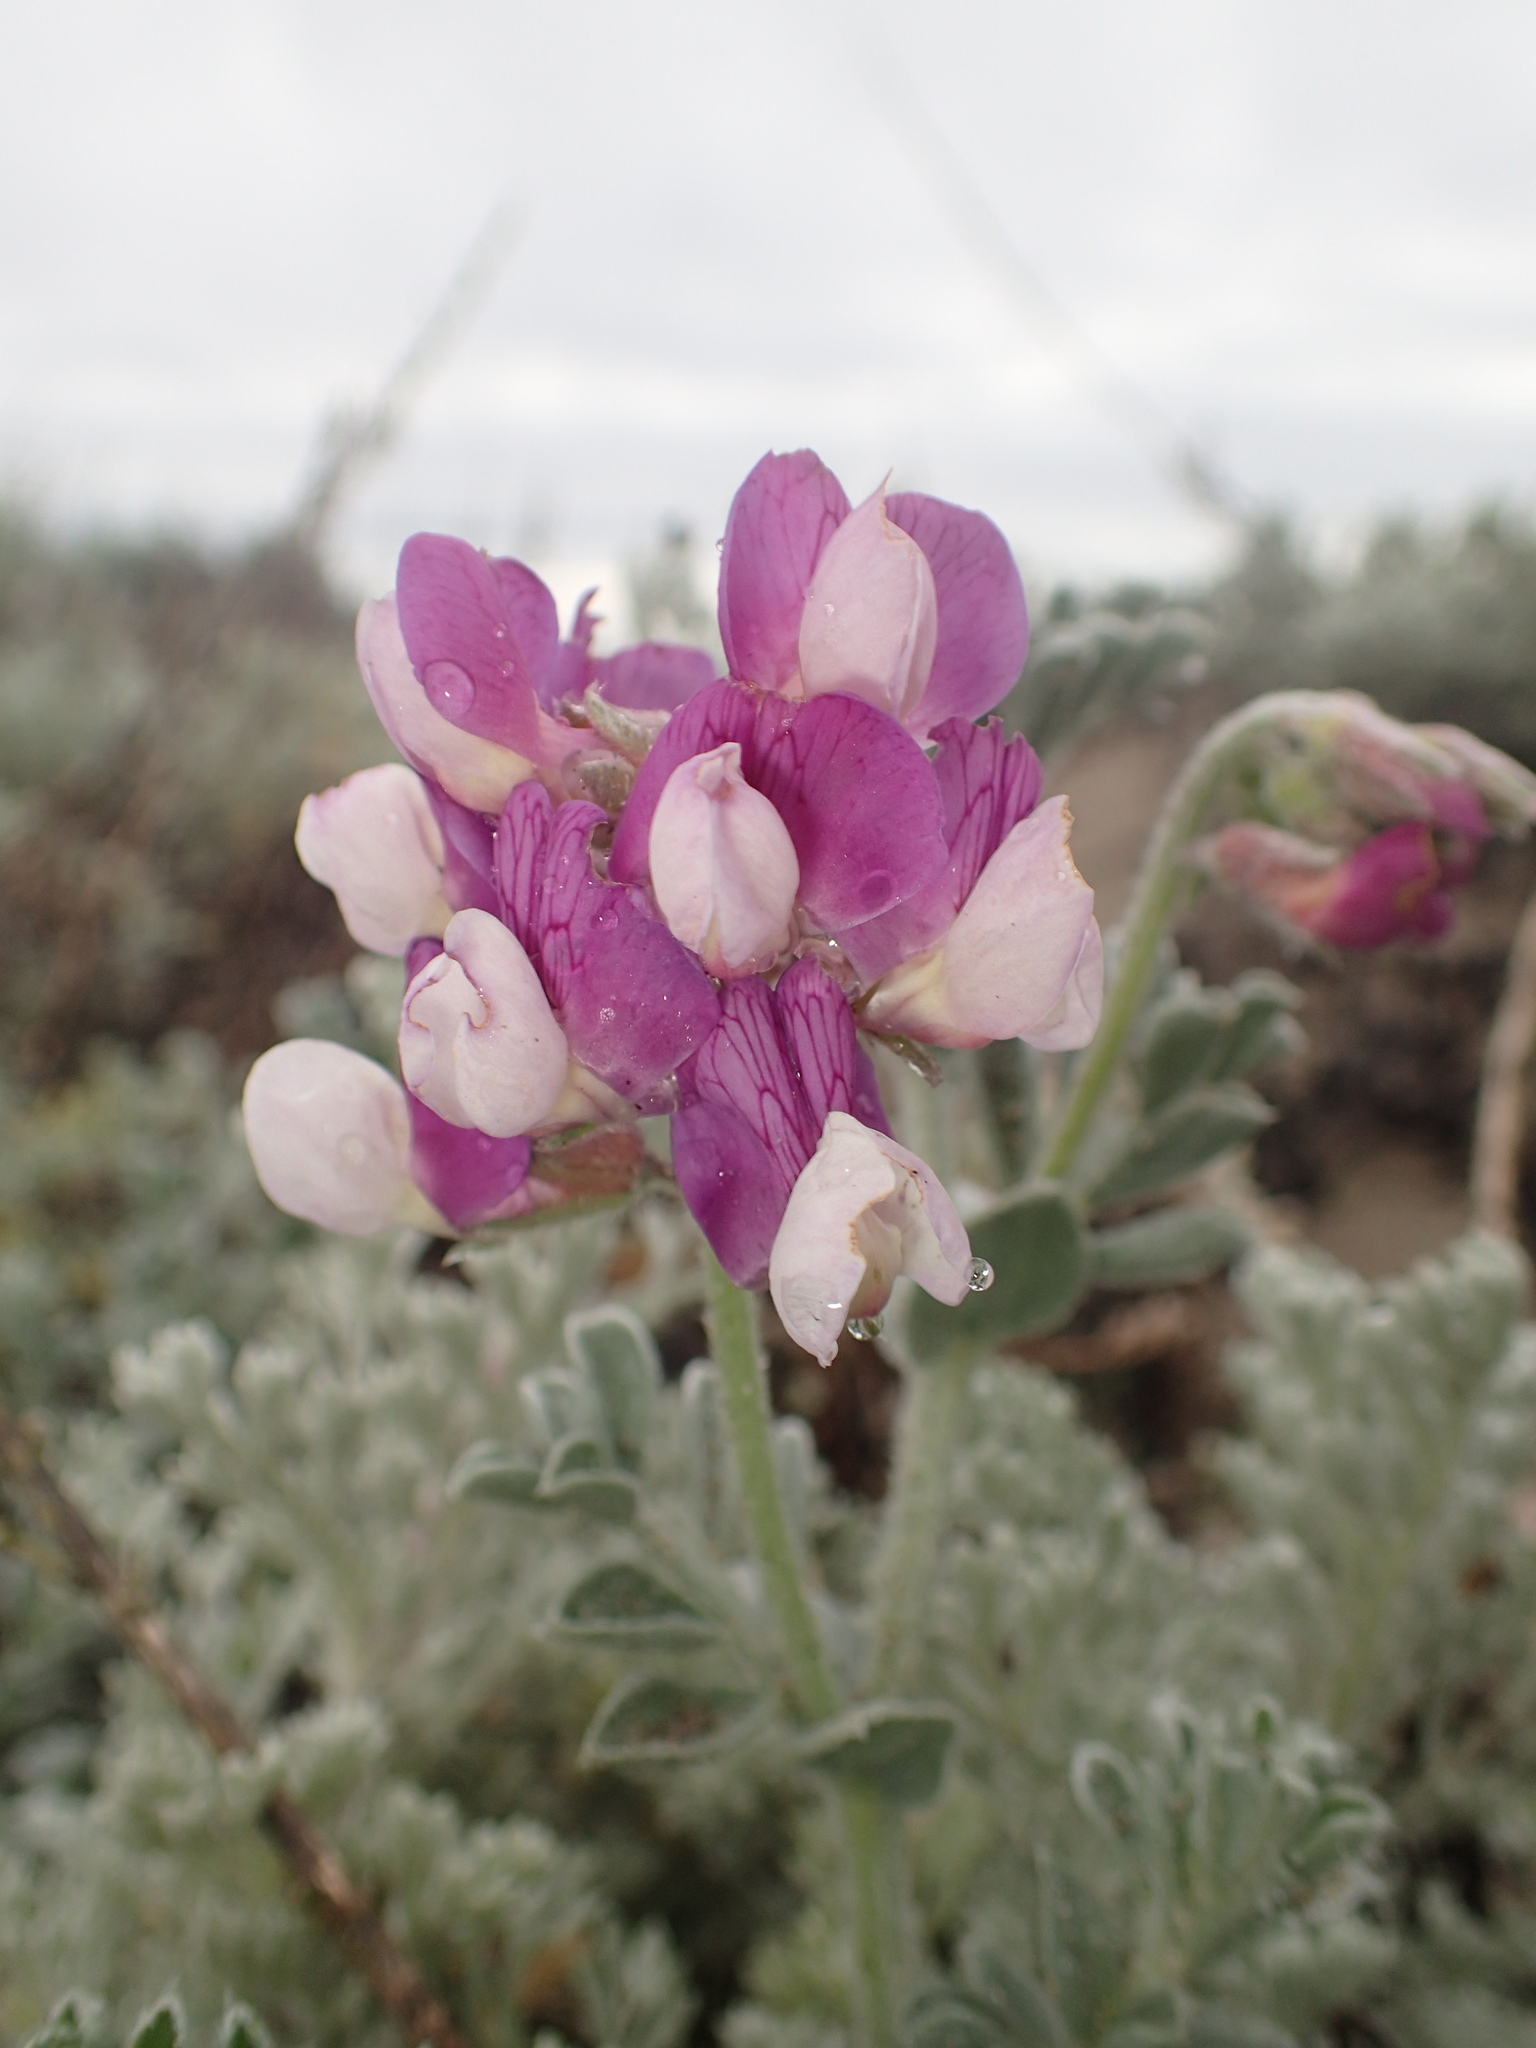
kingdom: Plantae
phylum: Tracheophyta
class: Magnoliopsida
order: Fabales
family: Fabaceae
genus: Lathyrus
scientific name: Lathyrus littoralis
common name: Dune sweet pea
